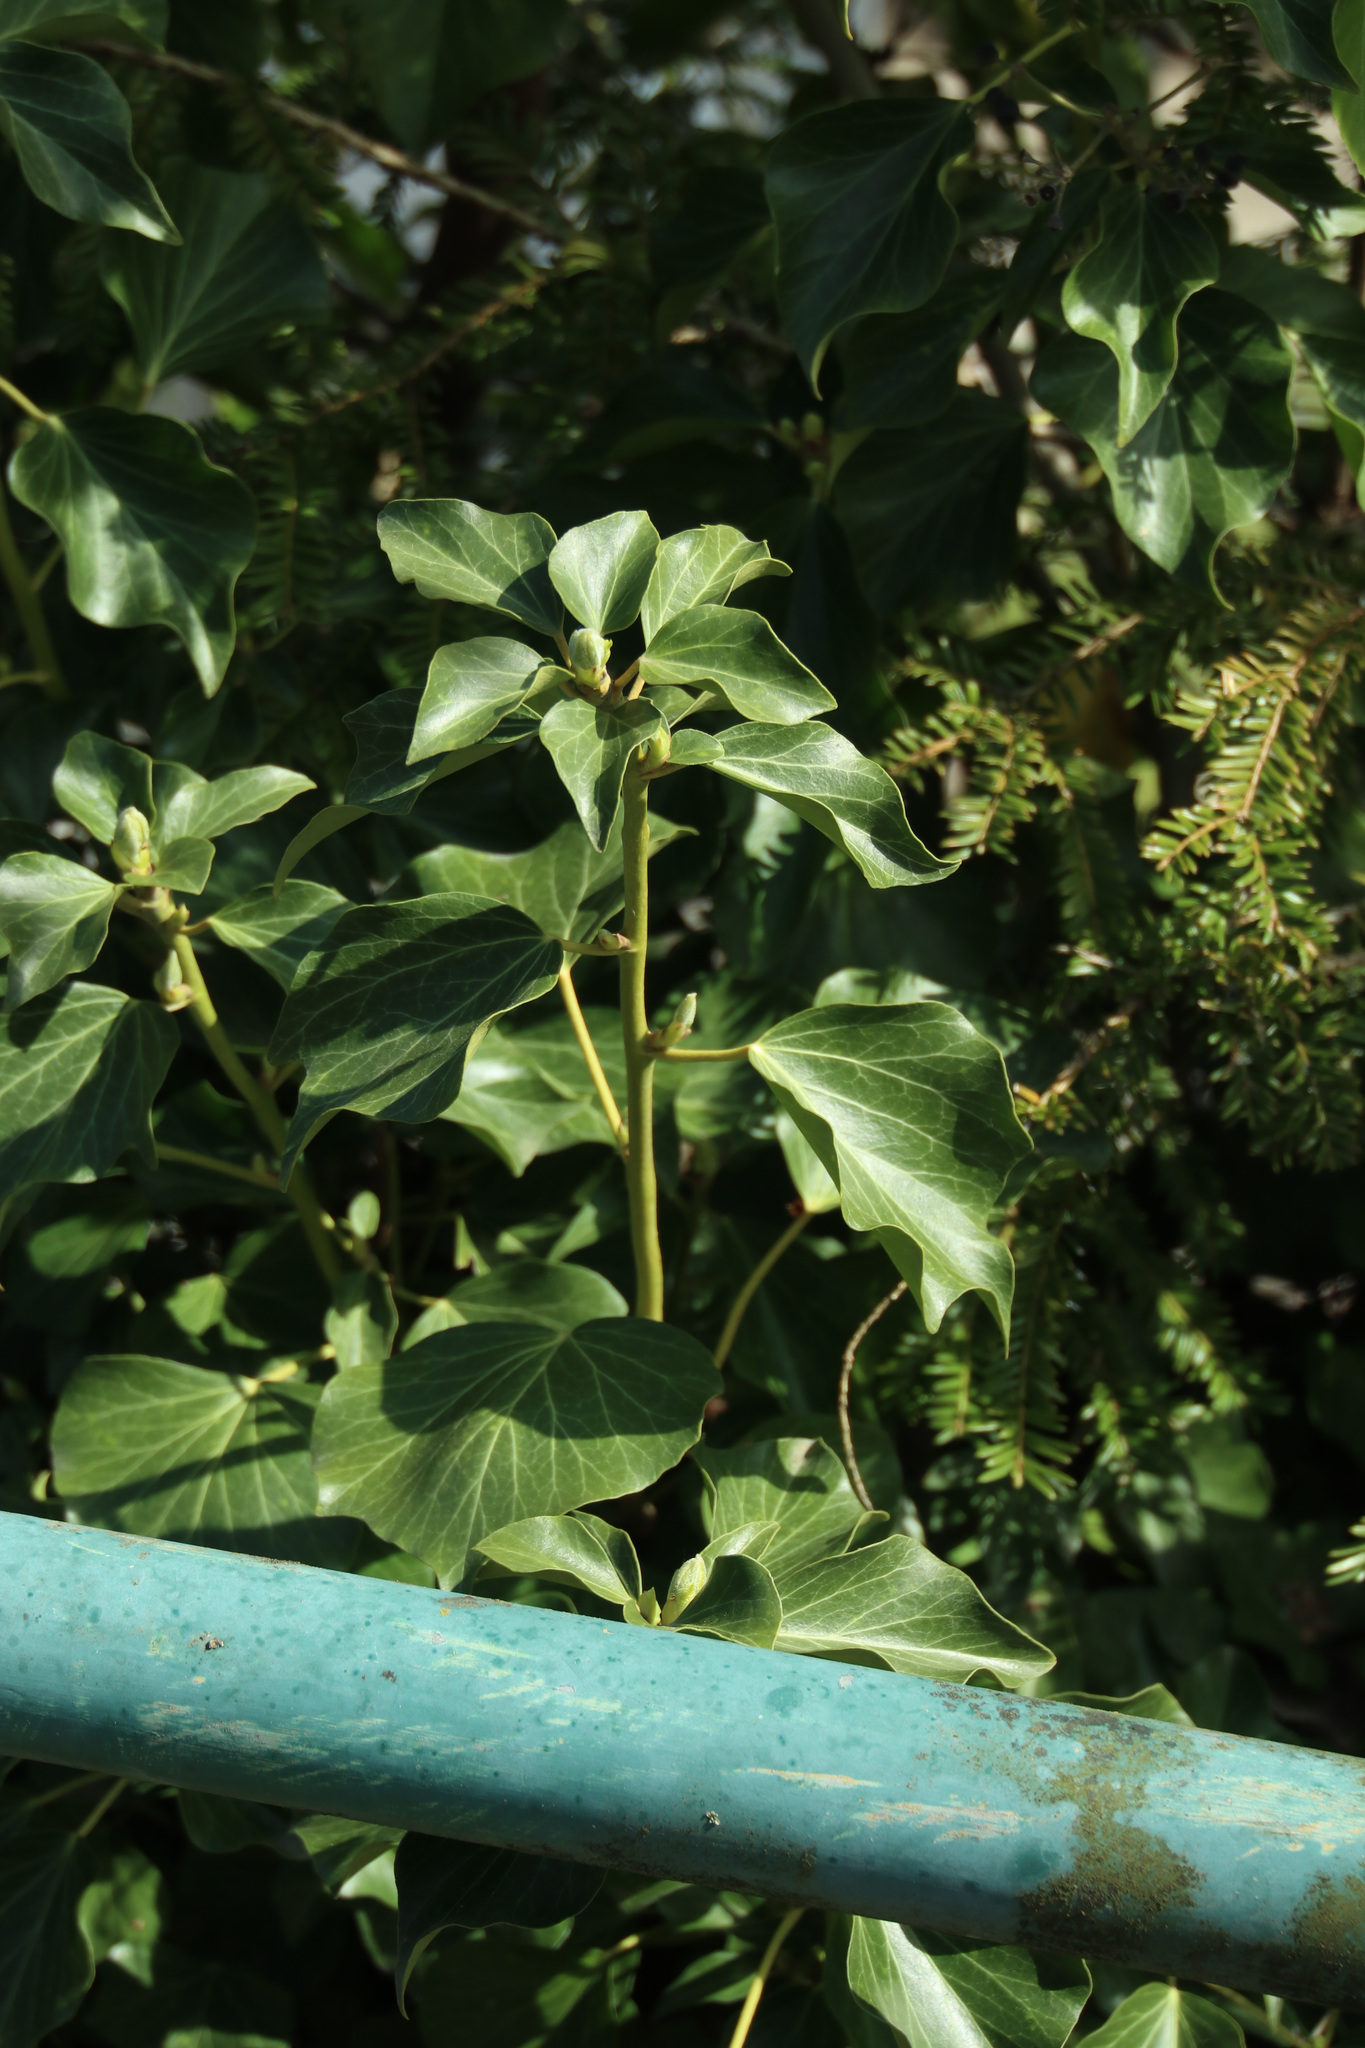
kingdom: Plantae
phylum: Tracheophyta
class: Magnoliopsida
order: Apiales
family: Araliaceae
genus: Hedera
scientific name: Hedera helix
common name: Ivy
